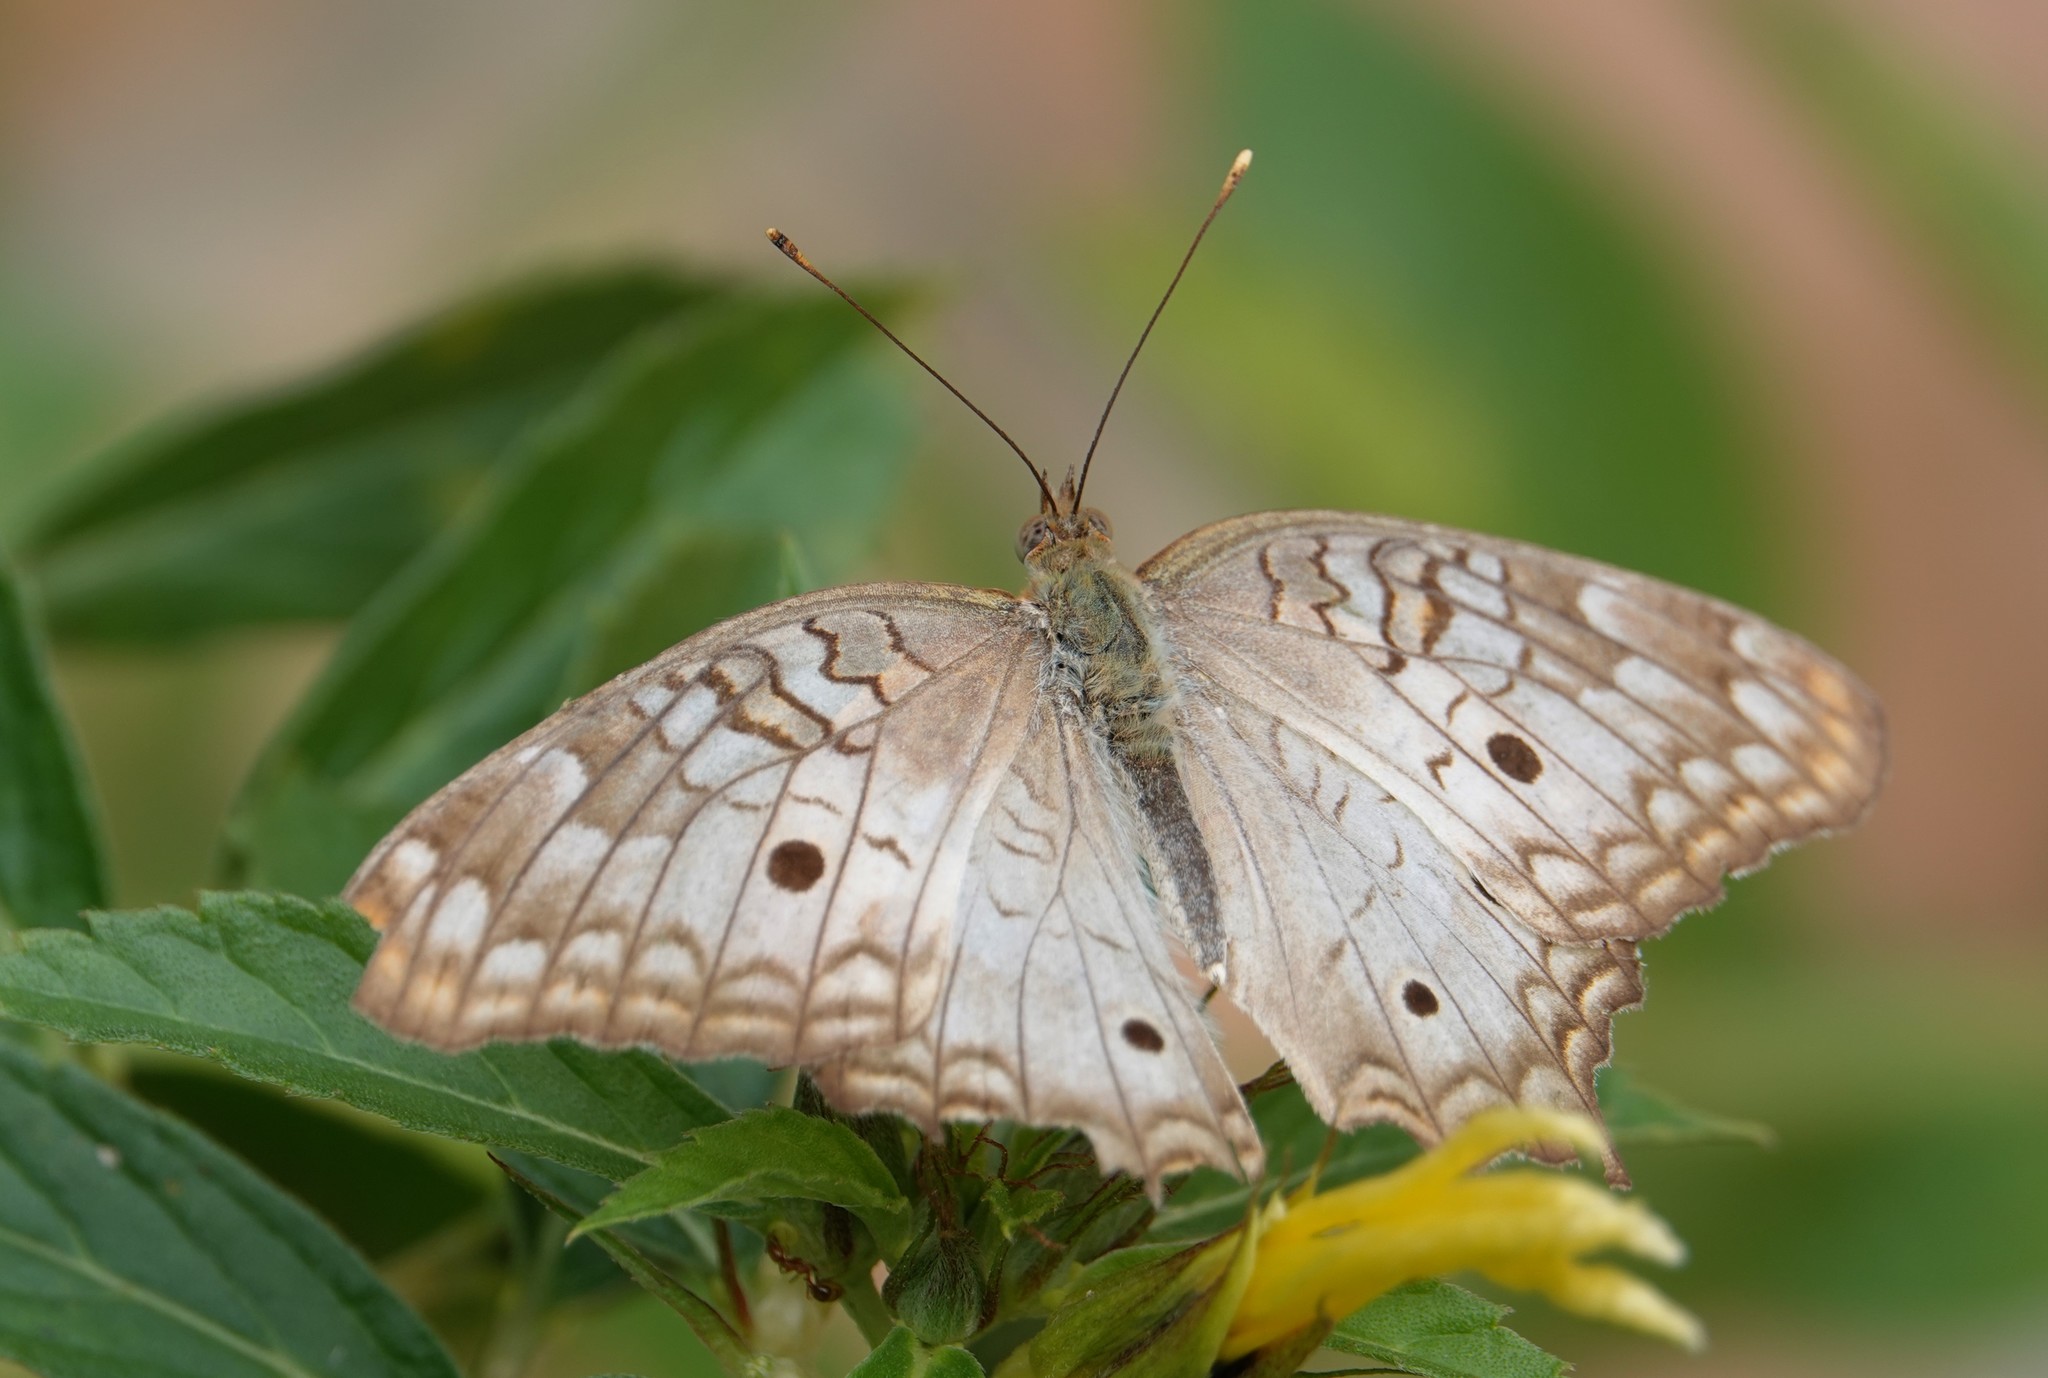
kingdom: Animalia
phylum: Arthropoda
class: Insecta
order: Lepidoptera
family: Nymphalidae
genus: Anartia
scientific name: Anartia jatrophae
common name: White peacock
